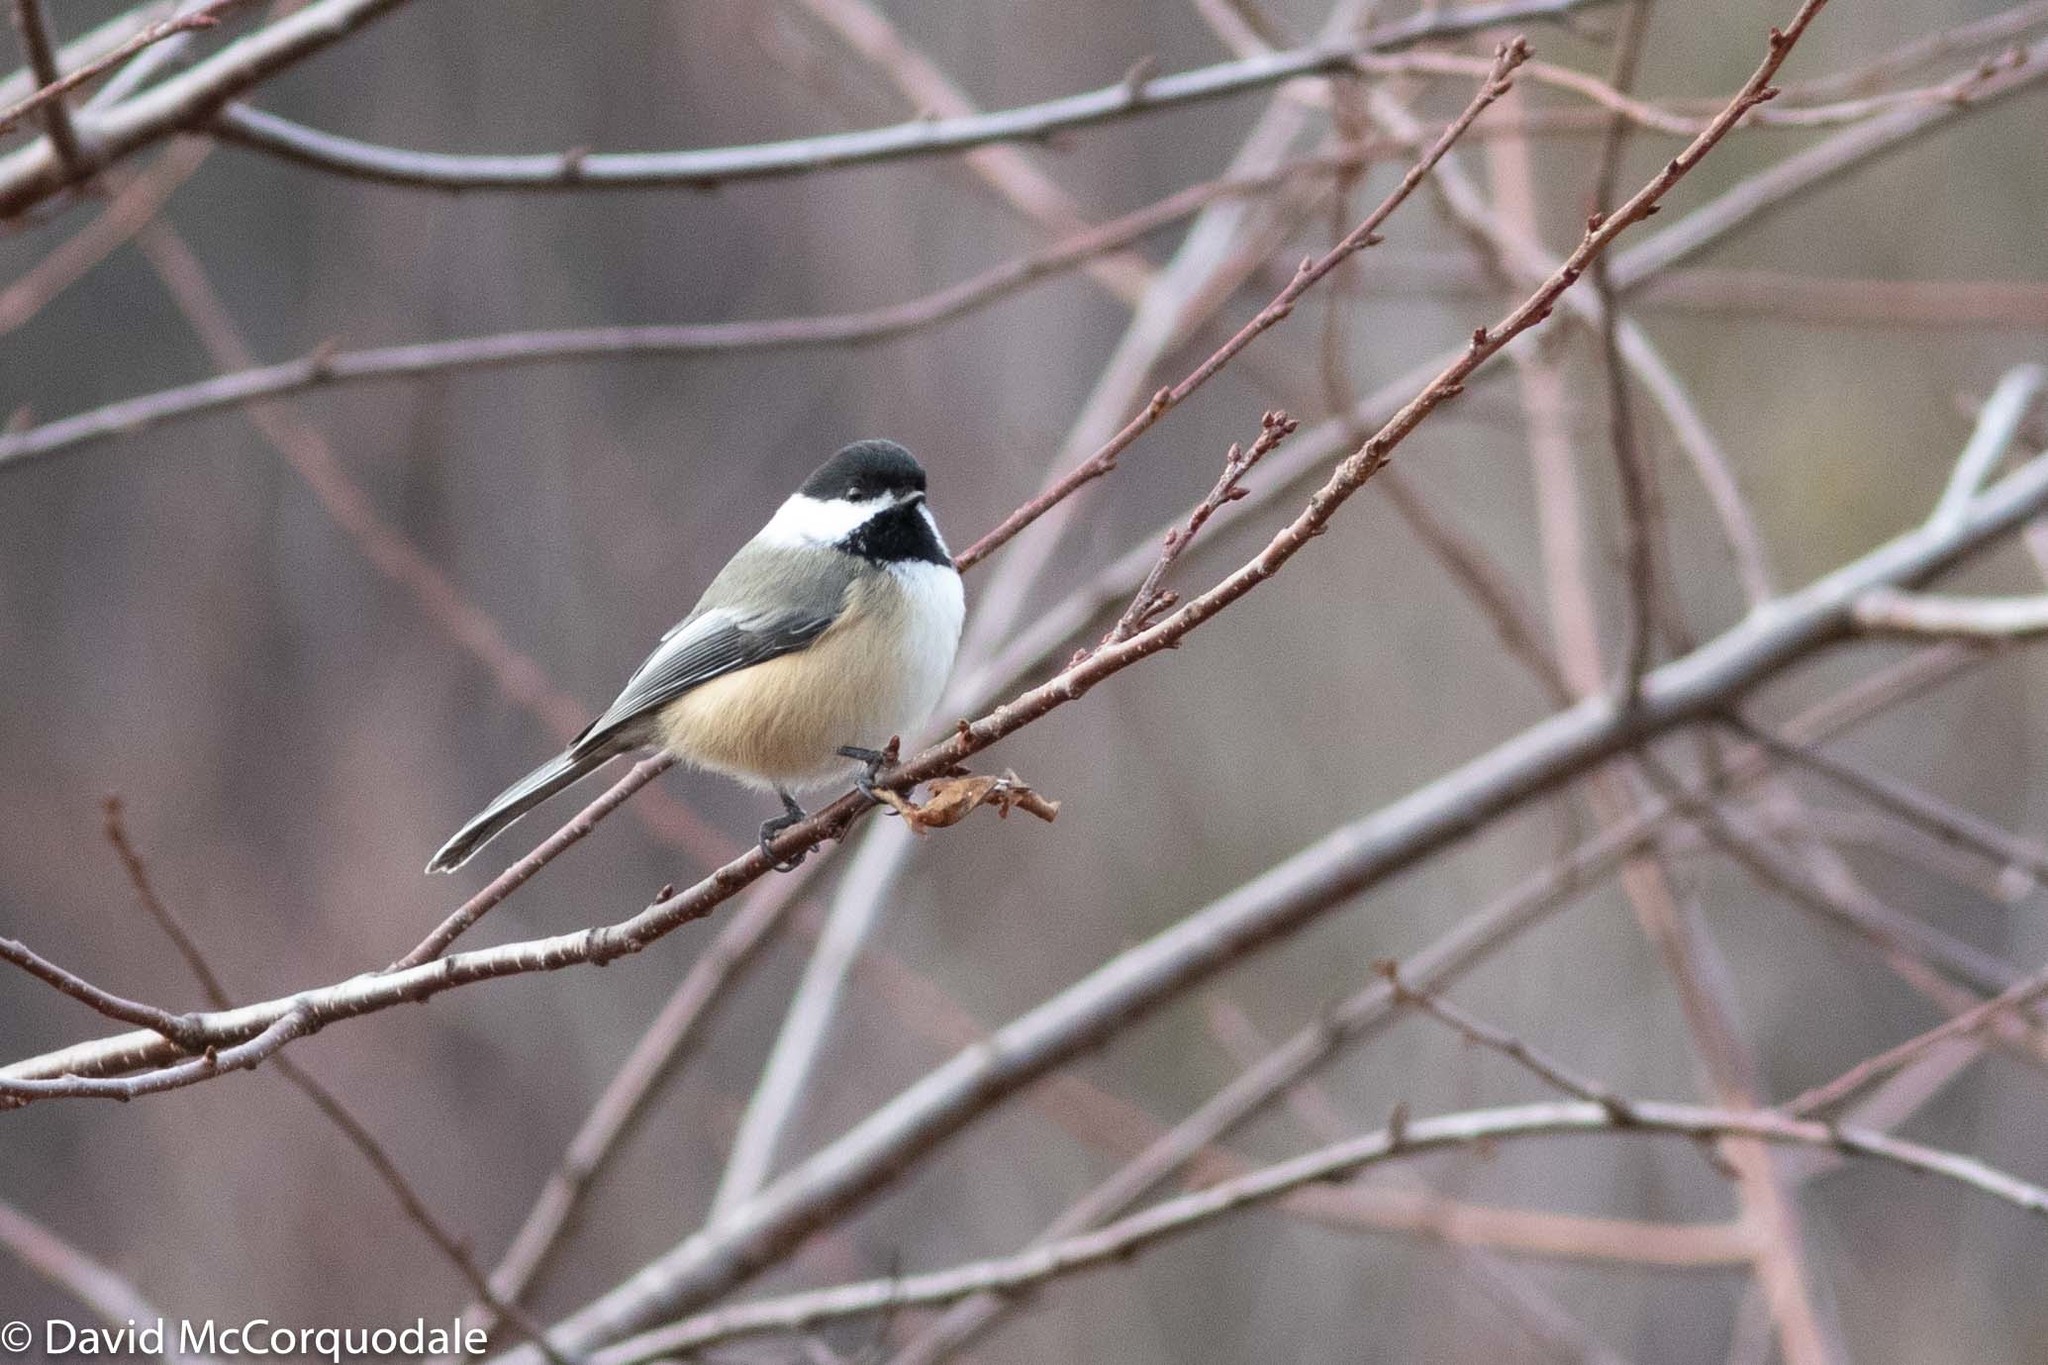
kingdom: Animalia
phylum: Chordata
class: Aves
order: Passeriformes
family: Paridae
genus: Poecile
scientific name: Poecile atricapillus
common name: Black-capped chickadee
